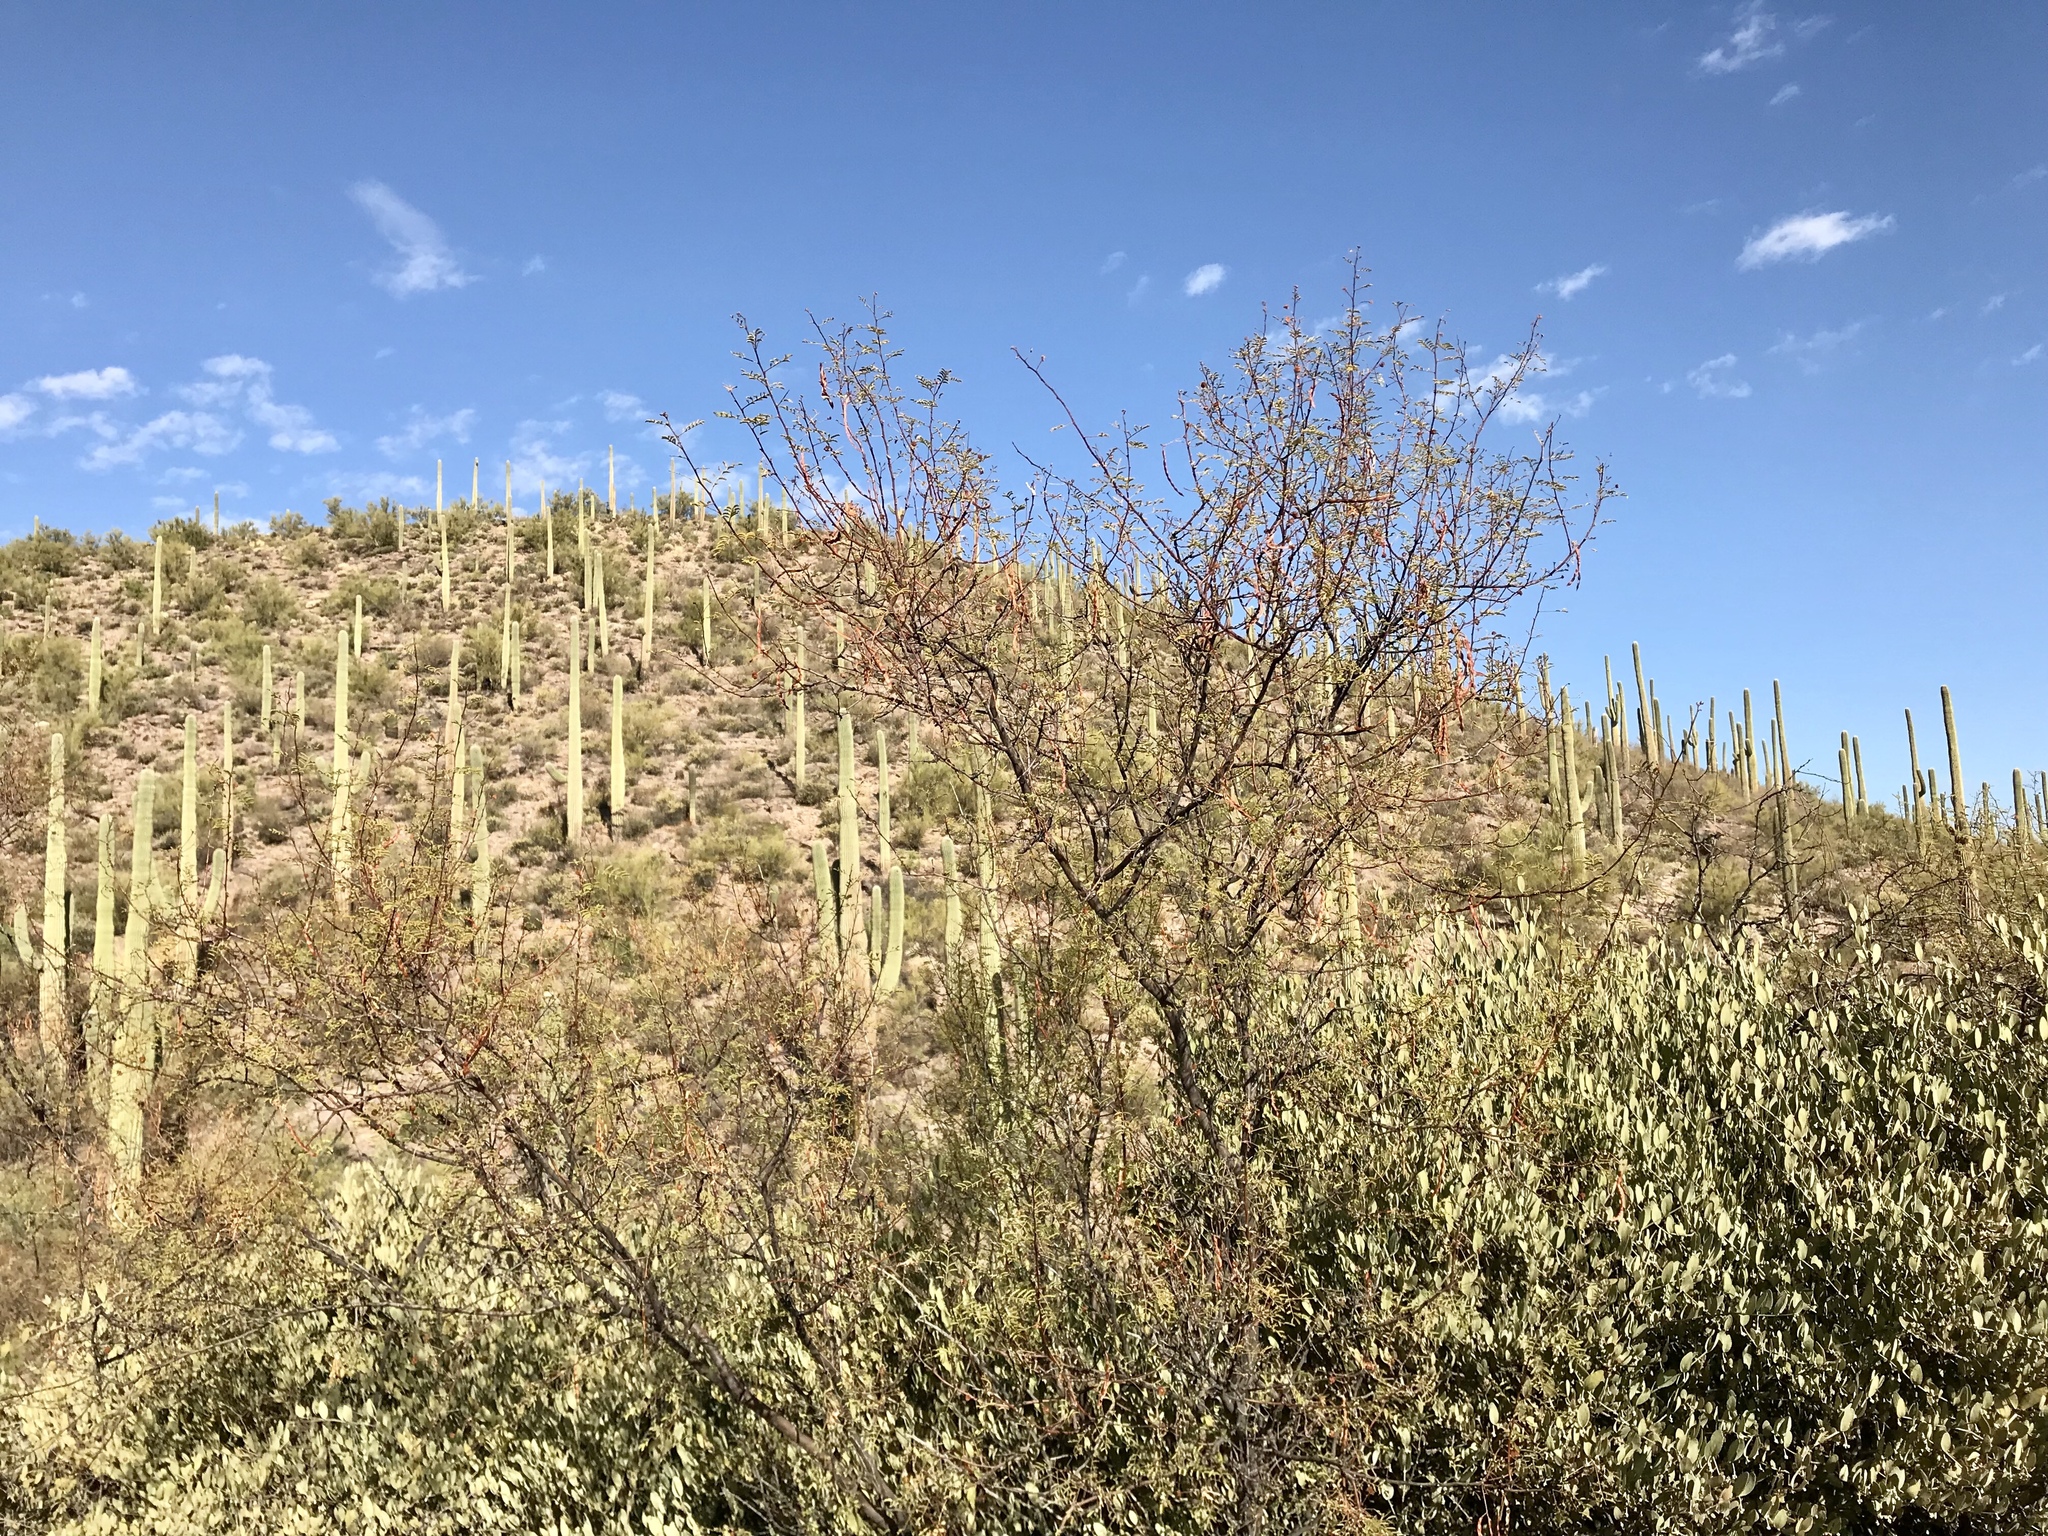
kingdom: Plantae
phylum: Tracheophyta
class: Magnoliopsida
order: Fabales
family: Fabaceae
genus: Vachellia
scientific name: Vachellia constricta
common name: Mescat acacia
